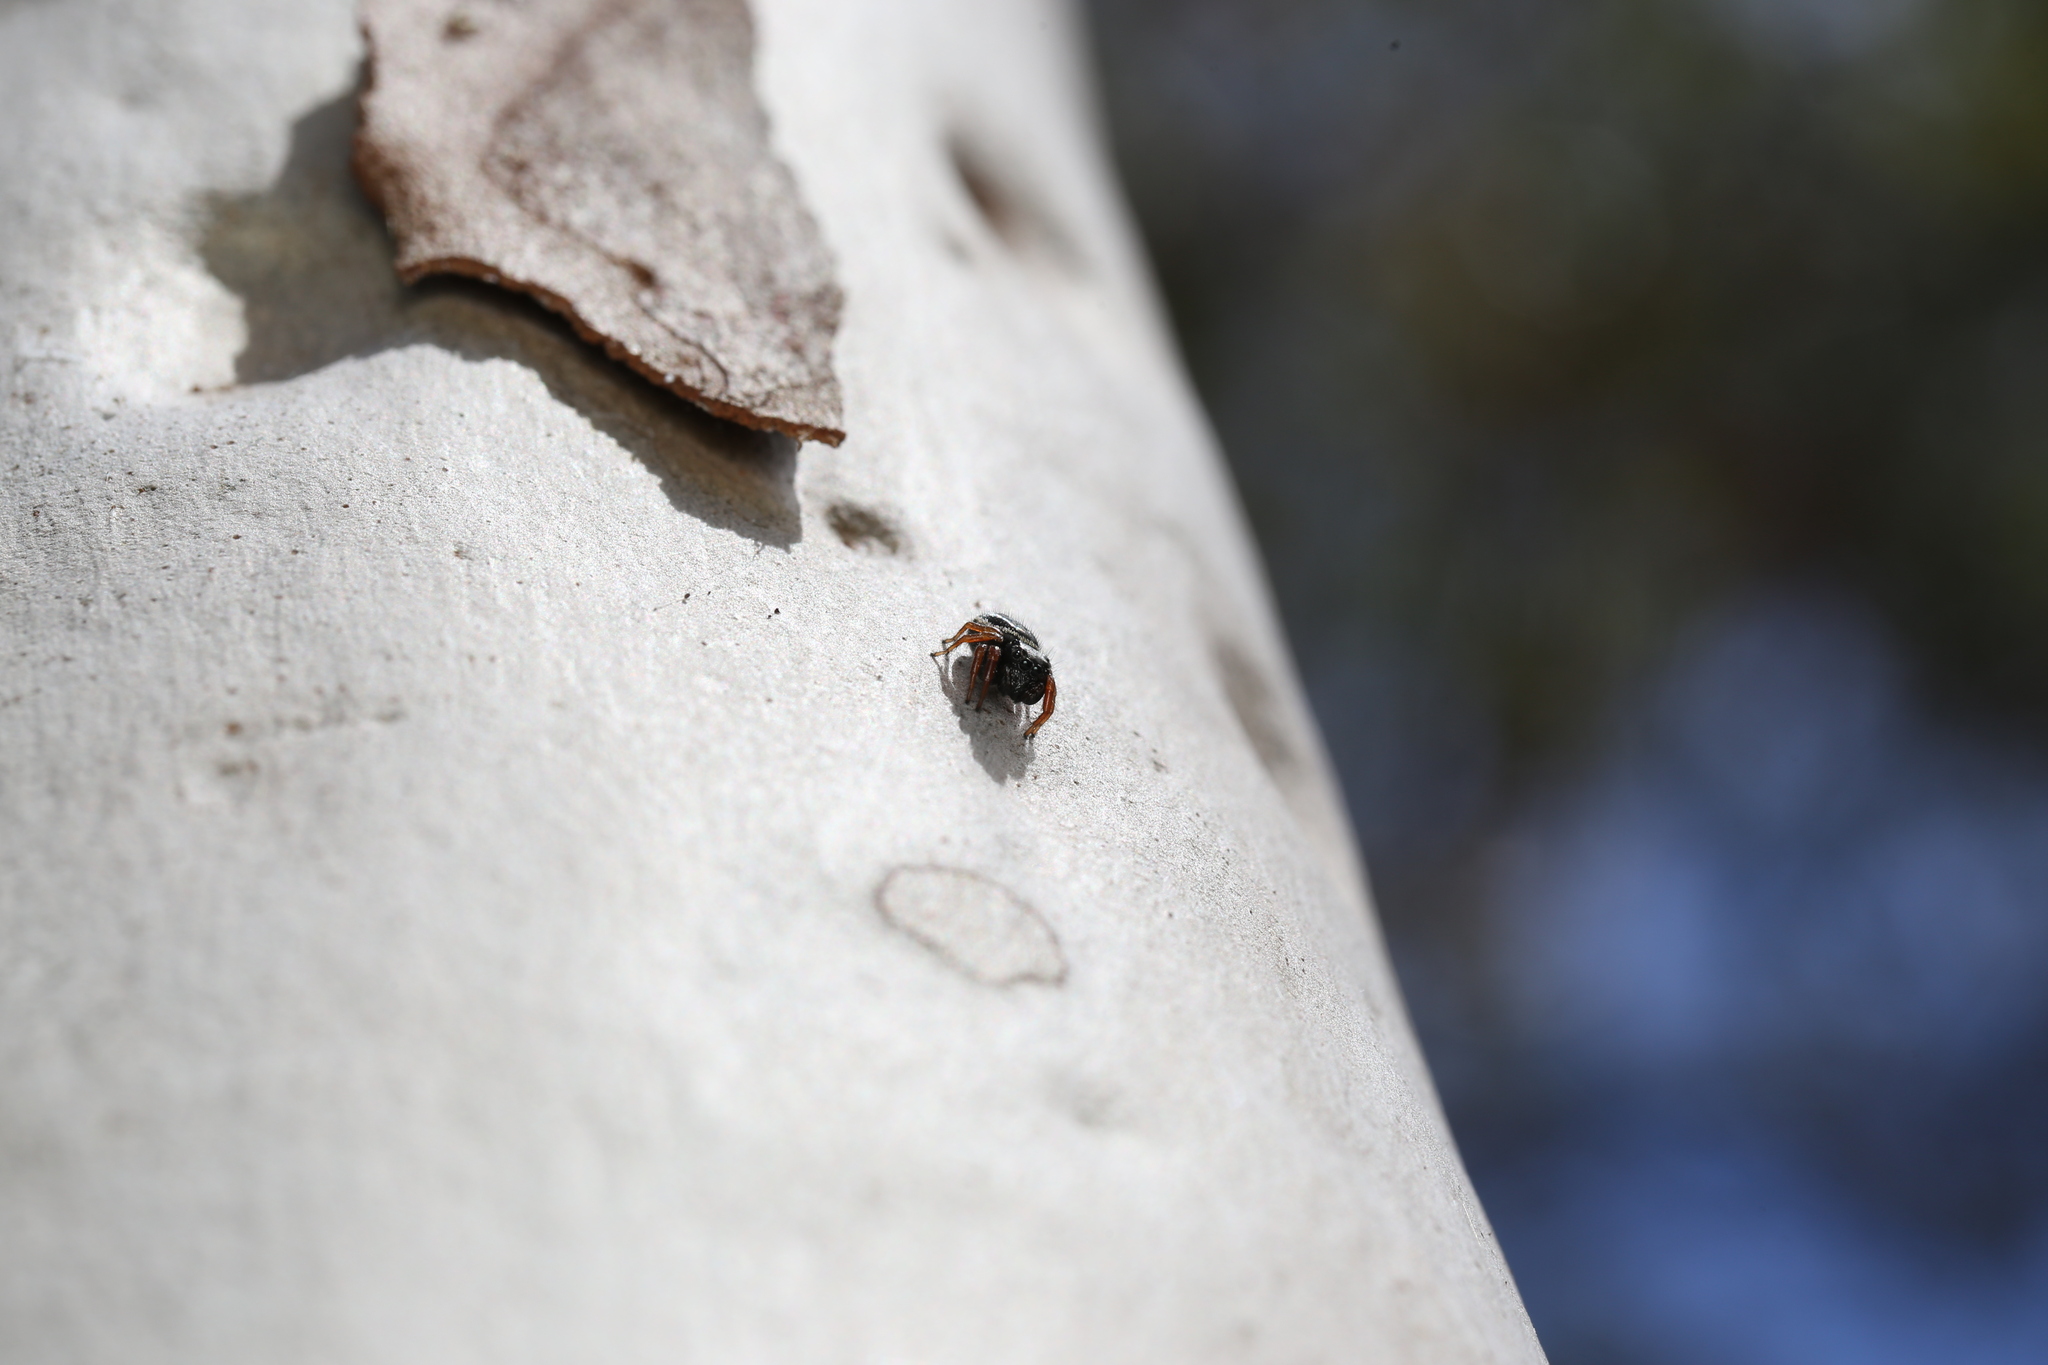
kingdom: Animalia
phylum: Arthropoda
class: Arachnida
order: Araneae
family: Salticidae
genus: Zenodorus
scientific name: Zenodorus orbiculatus
